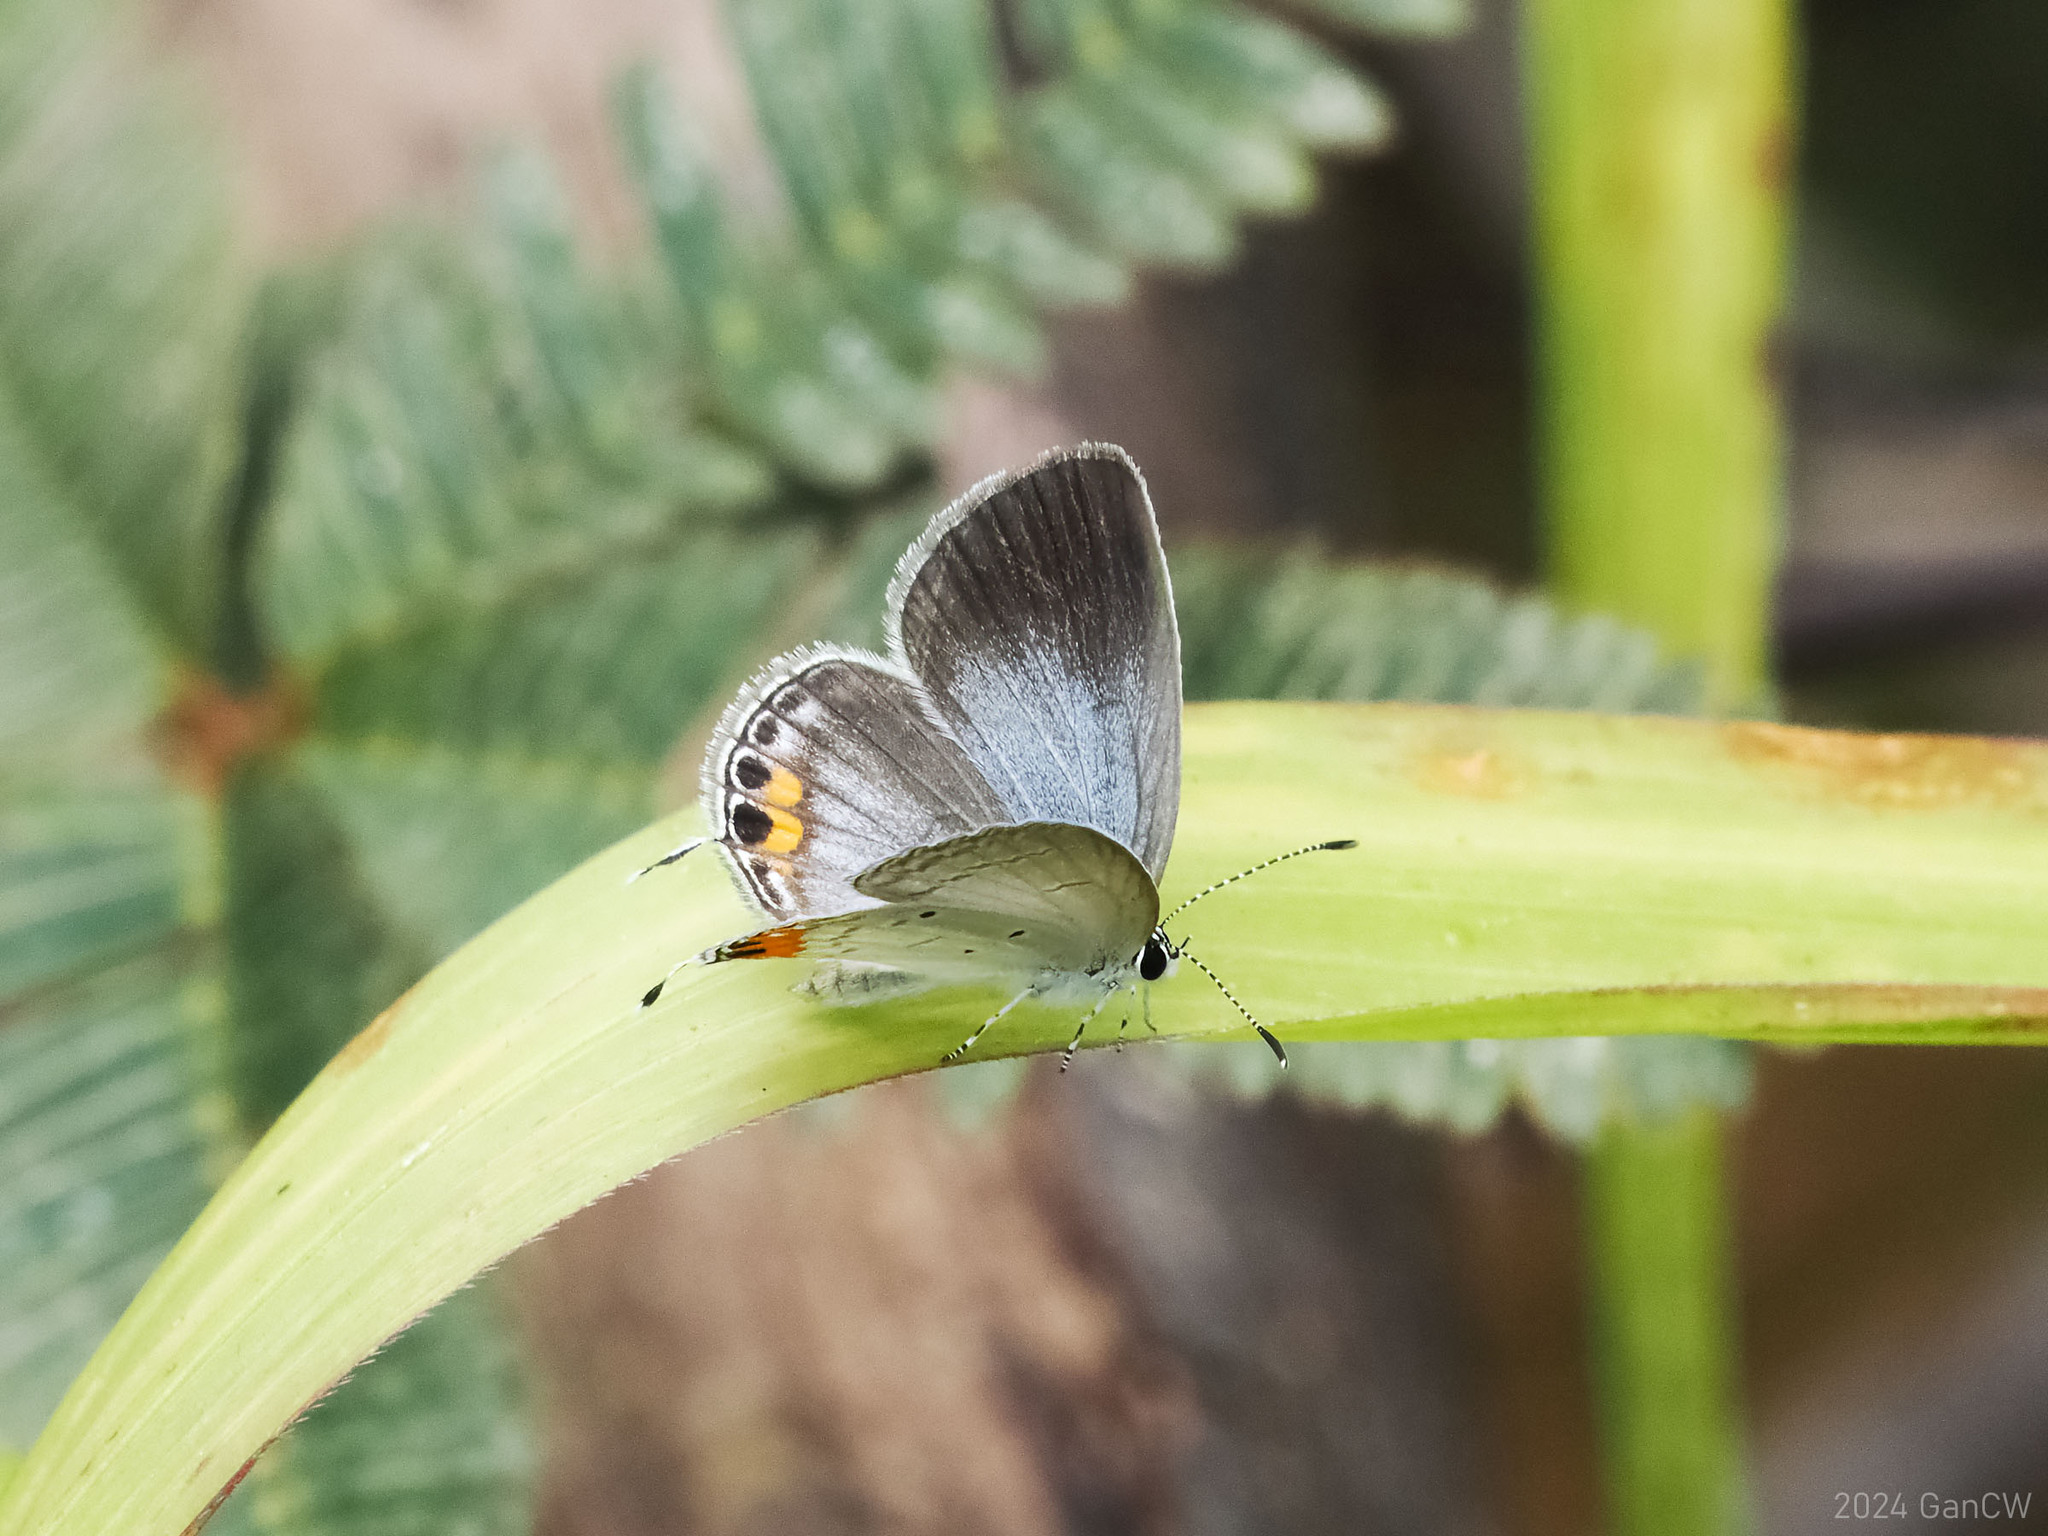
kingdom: Animalia
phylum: Arthropoda
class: Insecta
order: Lepidoptera
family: Lycaenidae
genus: Everes
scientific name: Everes lacturnus
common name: Orange-tipped pea-blue
